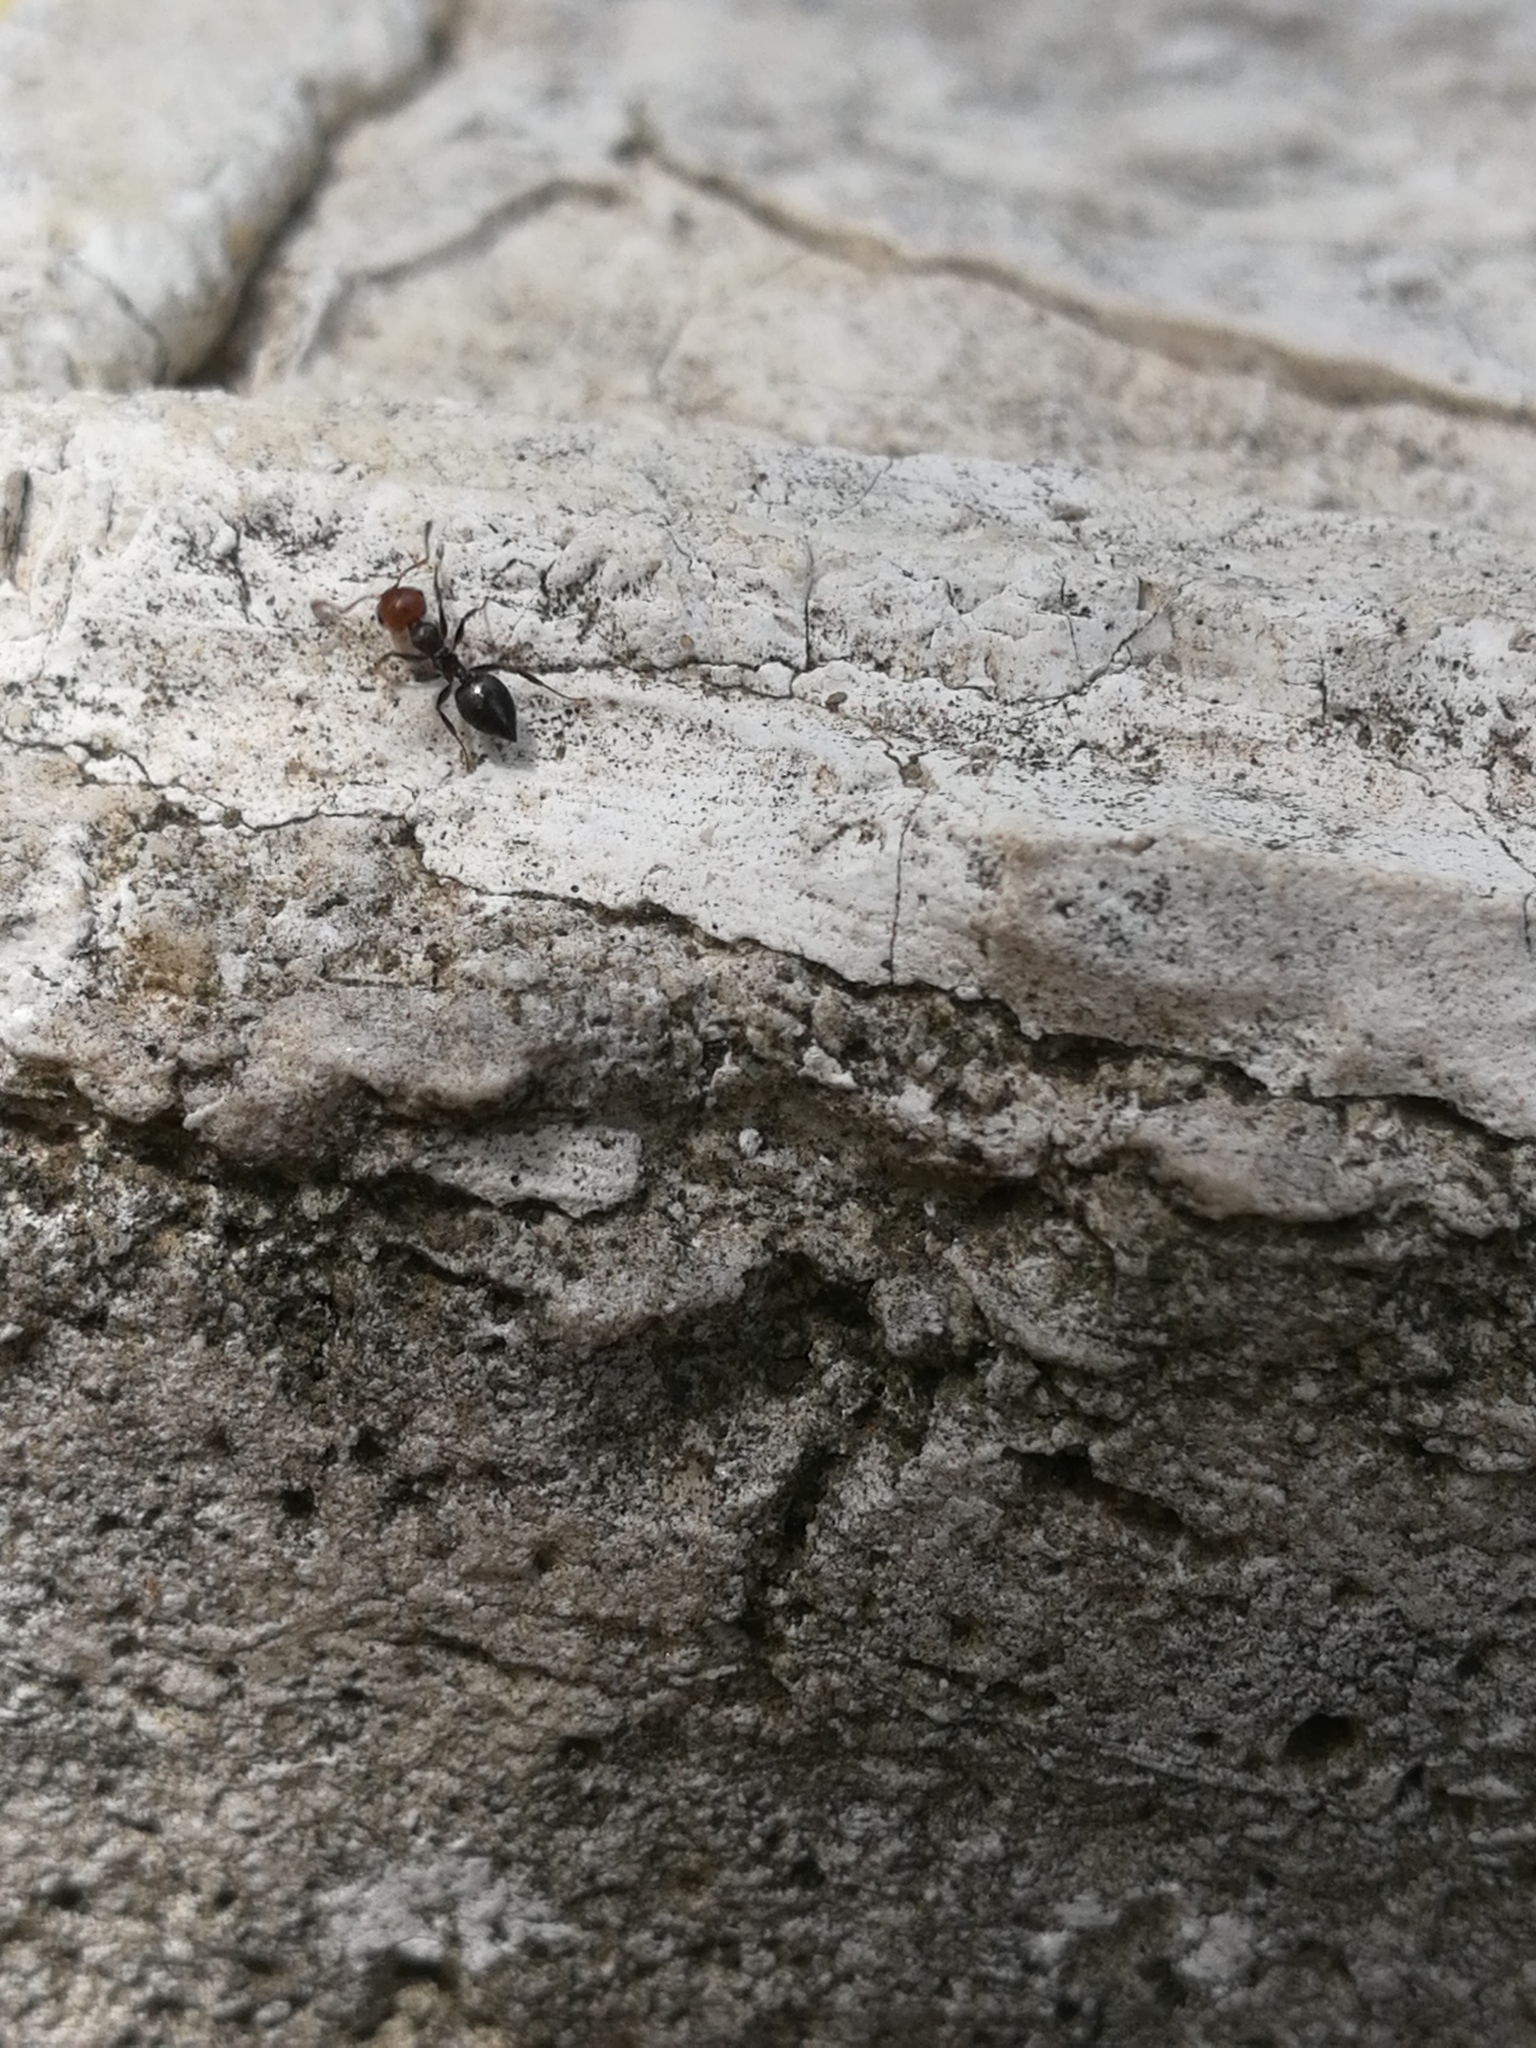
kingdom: Animalia
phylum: Arthropoda
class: Insecta
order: Hymenoptera
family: Formicidae
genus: Crematogaster
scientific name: Crematogaster scutellaris
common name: Fourmi du liège
